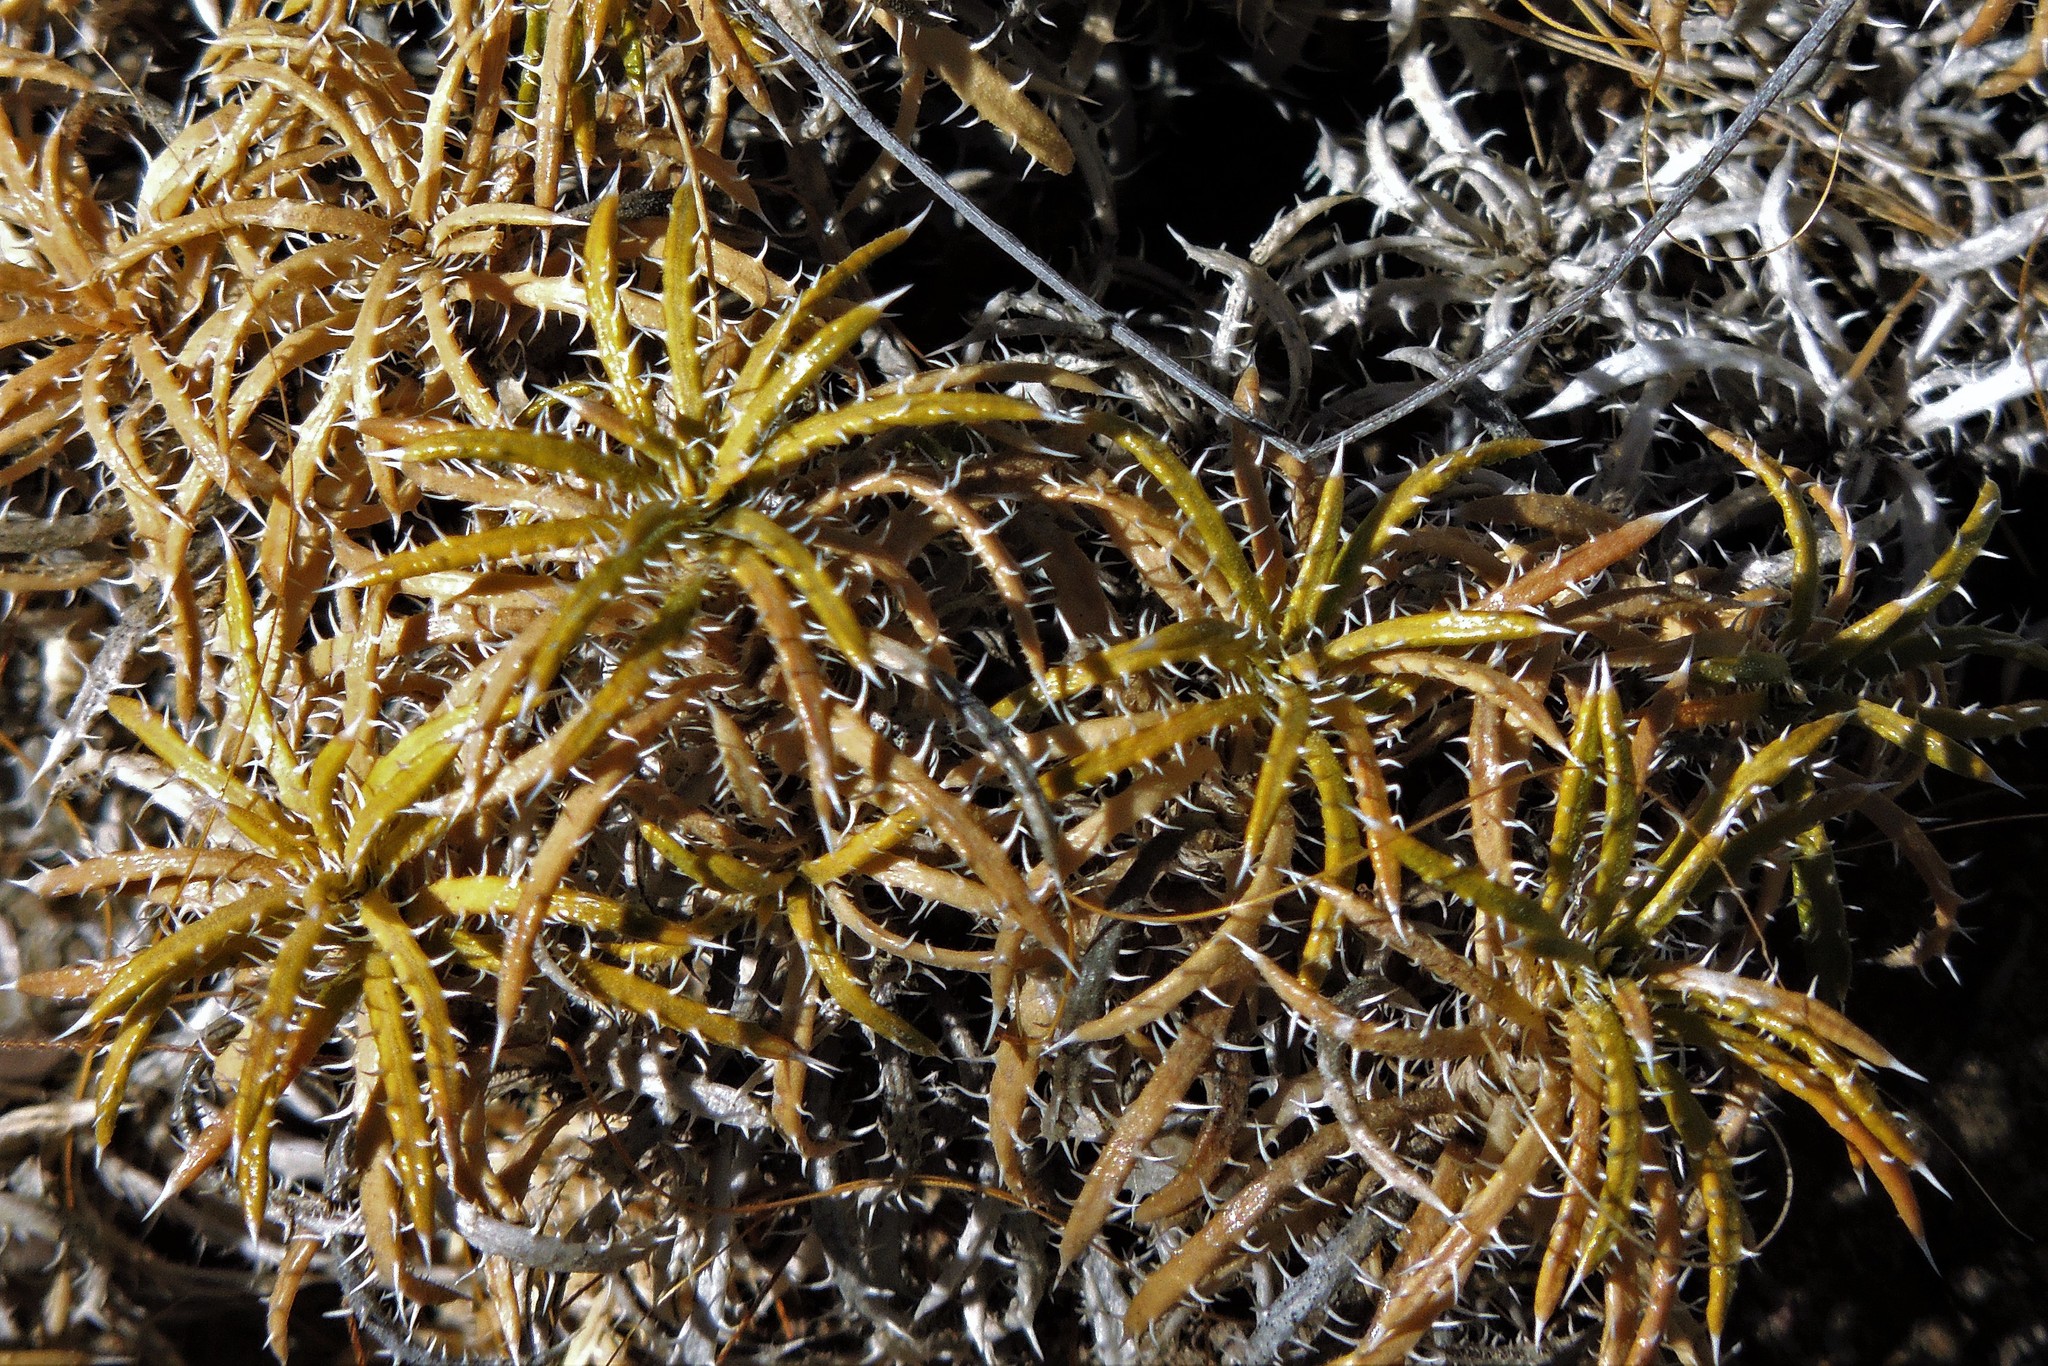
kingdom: Plantae
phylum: Tracheophyta
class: Magnoliopsida
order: Asterales
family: Asteraceae
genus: Perezia
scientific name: Perezia recurvata
